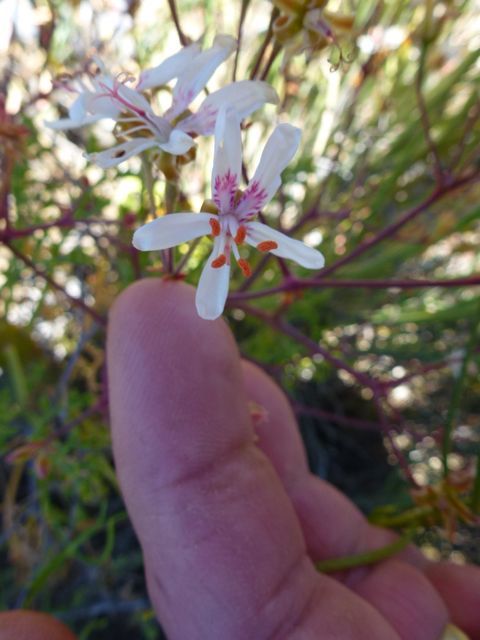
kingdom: Plantae
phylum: Tracheophyta
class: Magnoliopsida
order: Geraniales
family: Geraniaceae
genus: Pelargonium
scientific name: Pelargonium crithmifolium
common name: Samphire-leaf pelargonium
